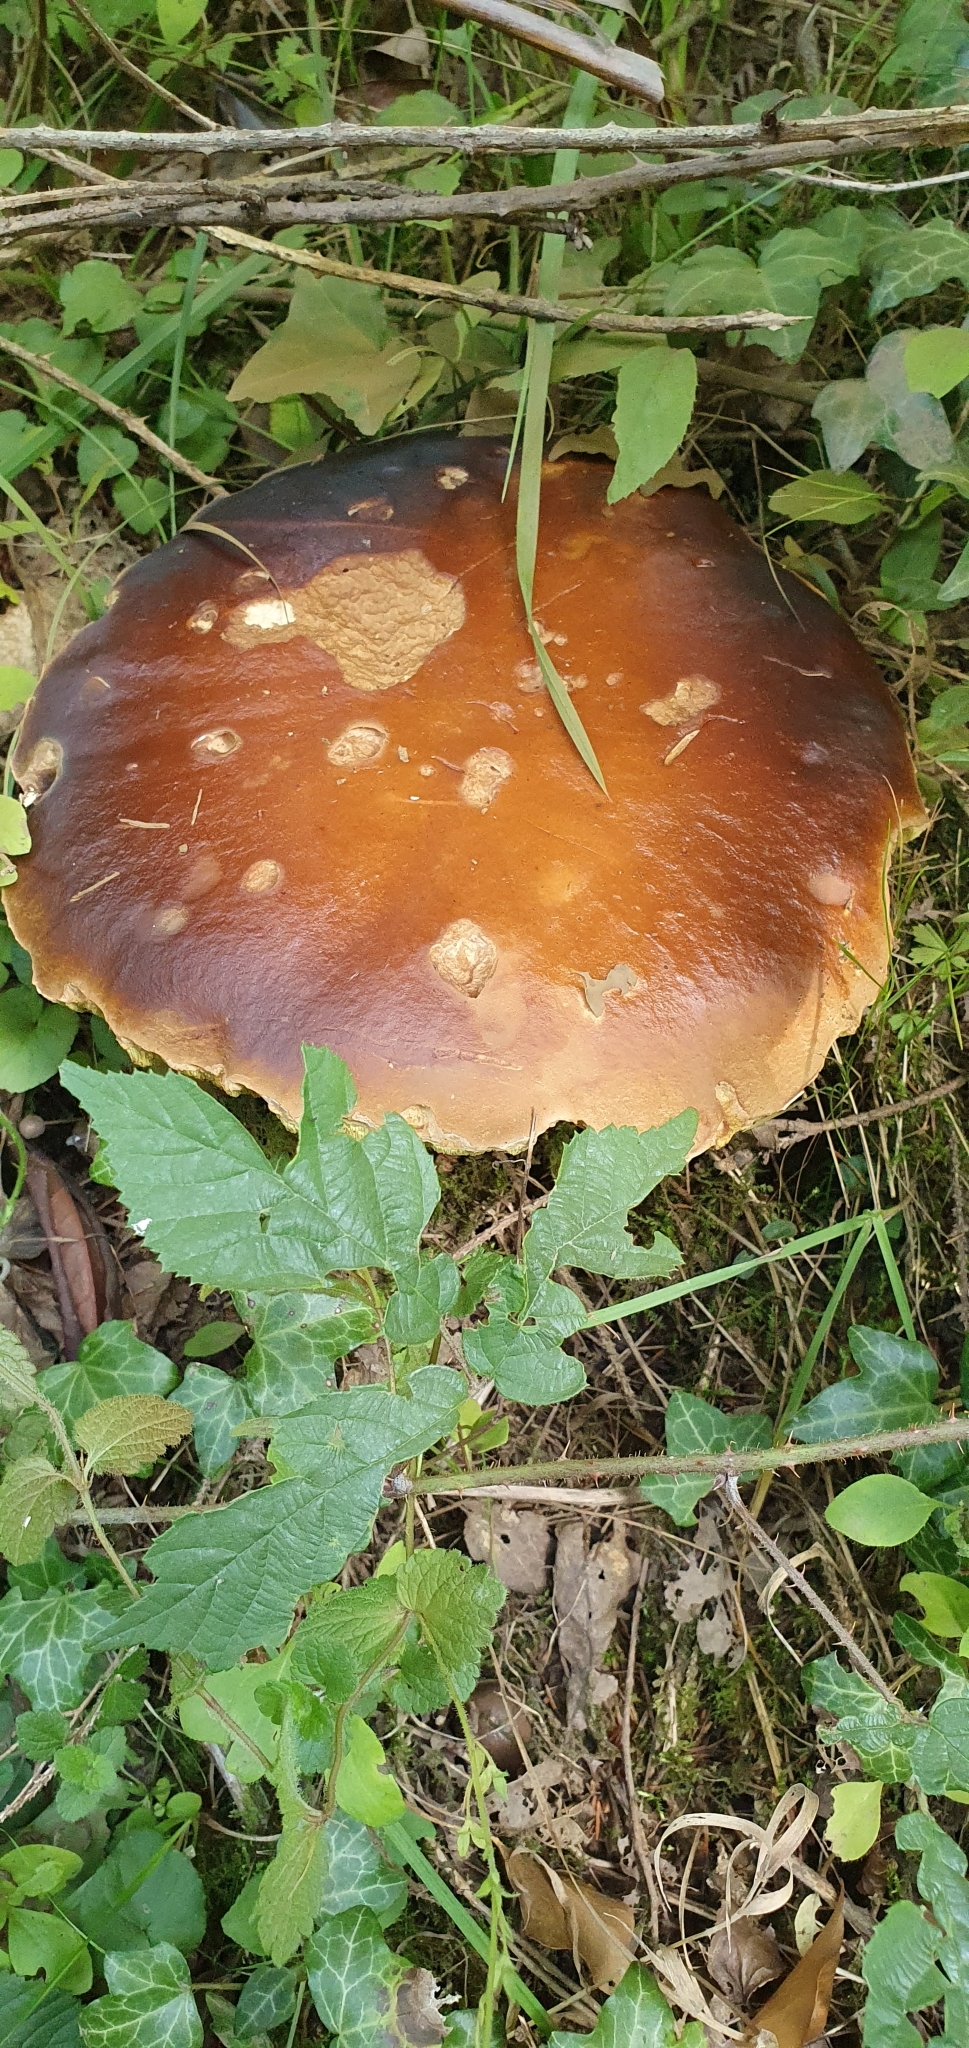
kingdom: Fungi
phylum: Basidiomycota
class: Agaricomycetes
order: Boletales
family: Boletaceae
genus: Boletus
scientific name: Boletus edulis
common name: Cep
